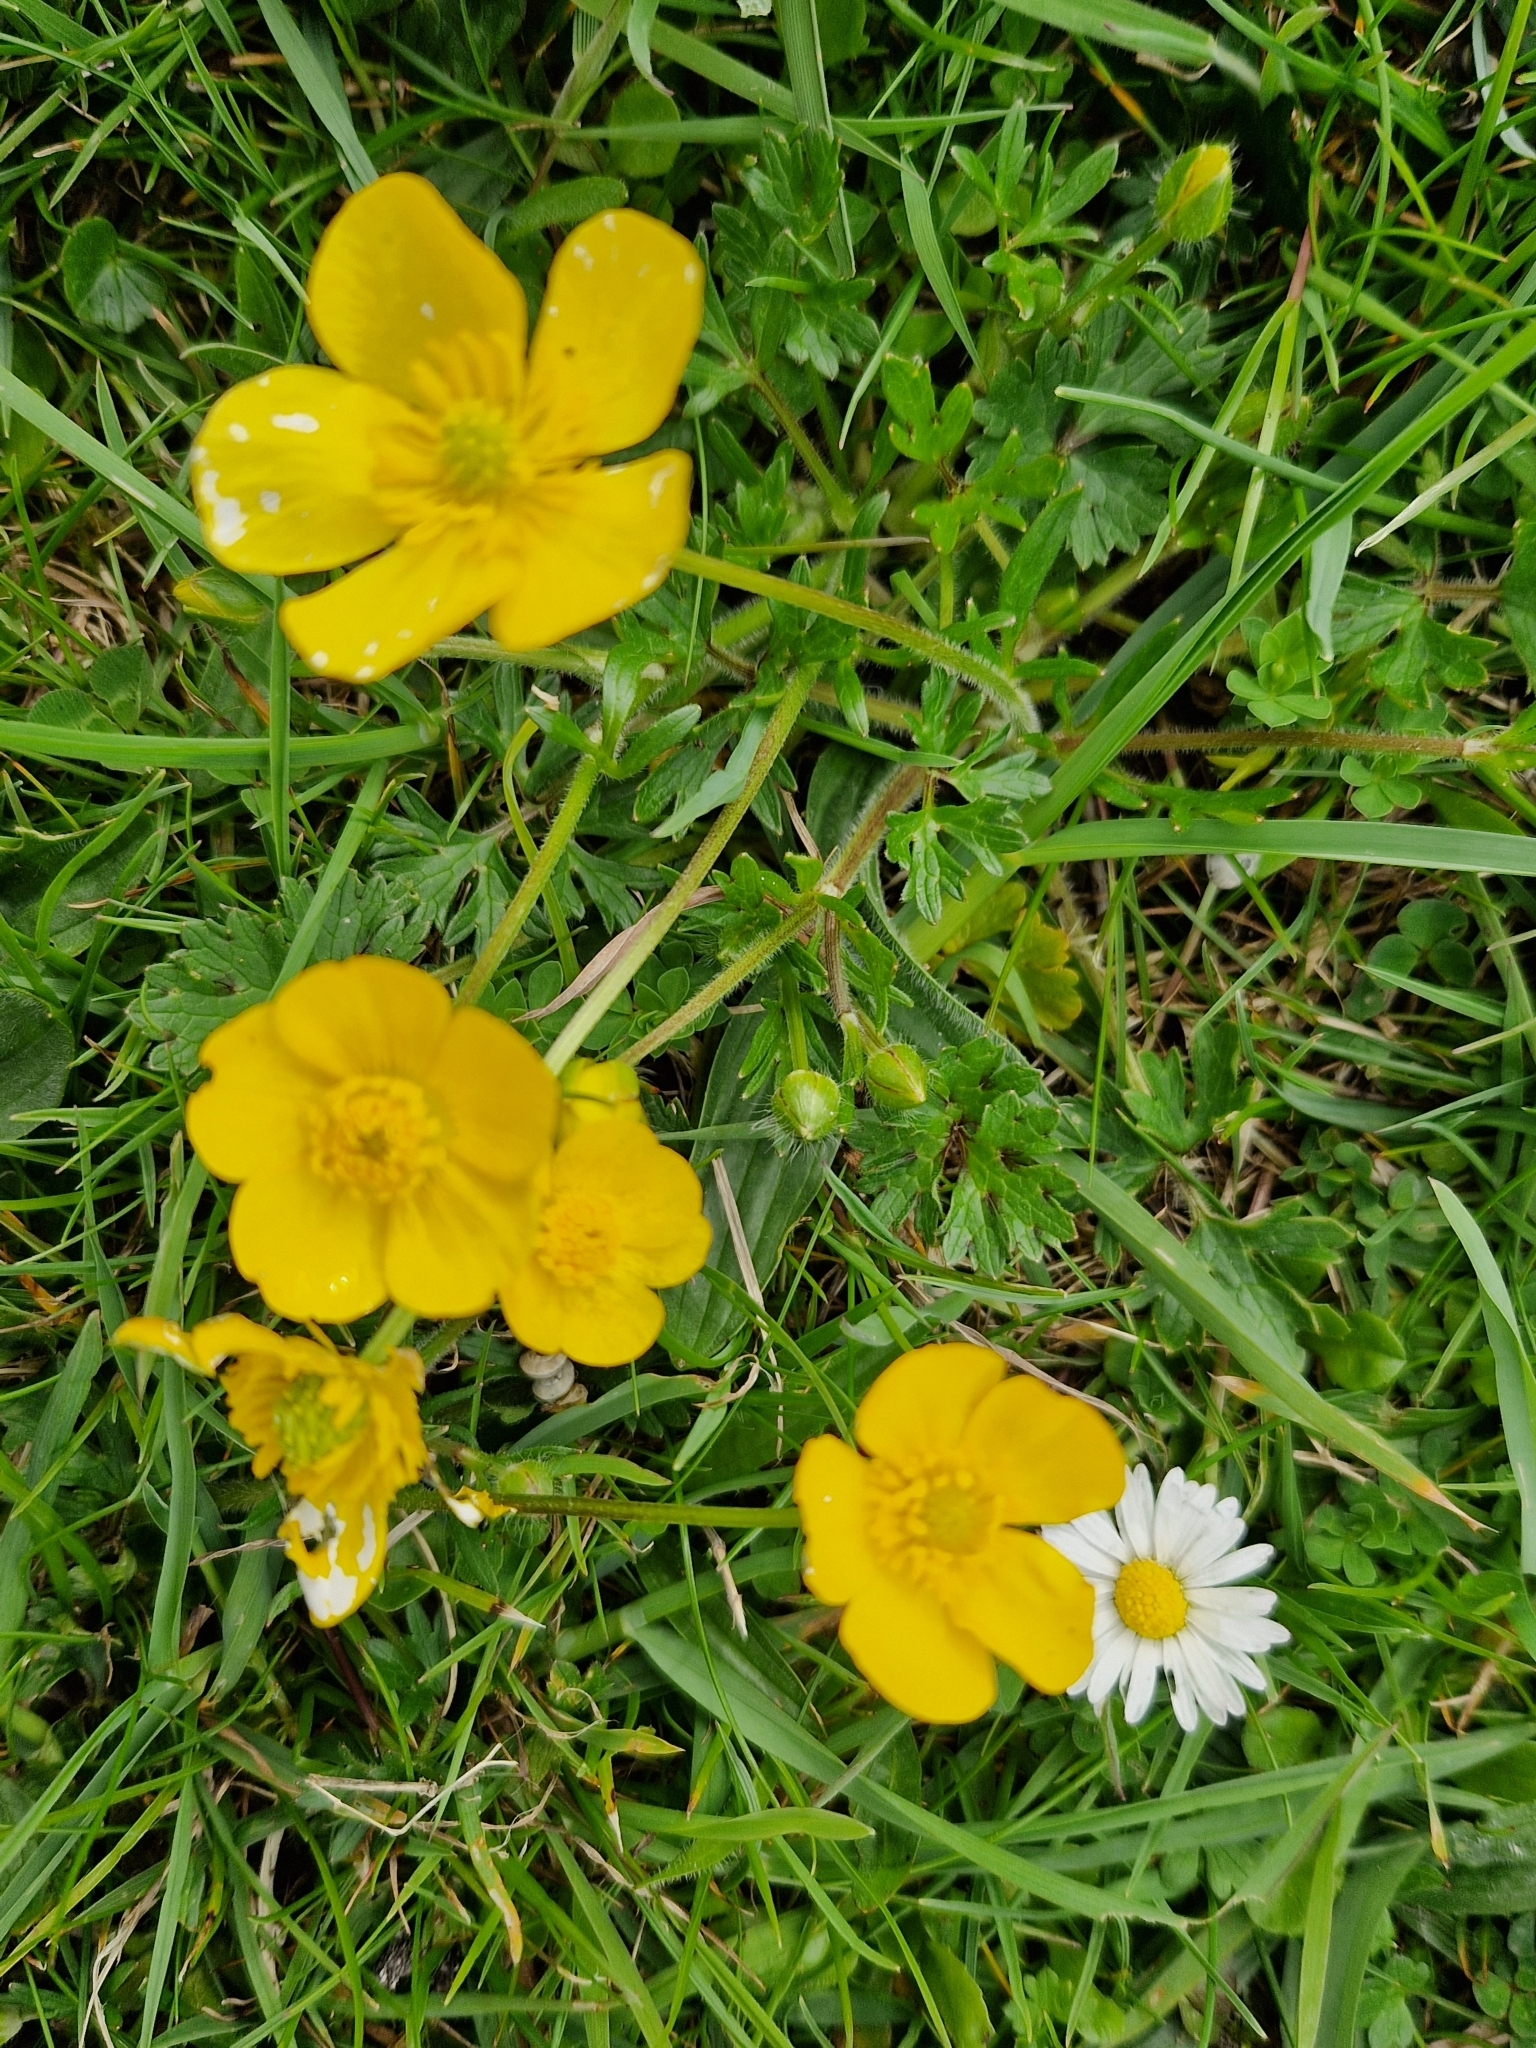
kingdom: Plantae
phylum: Tracheophyta
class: Magnoliopsida
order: Ranunculales
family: Ranunculaceae
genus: Ranunculus
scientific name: Ranunculus bulbosus
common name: Bulbous buttercup
